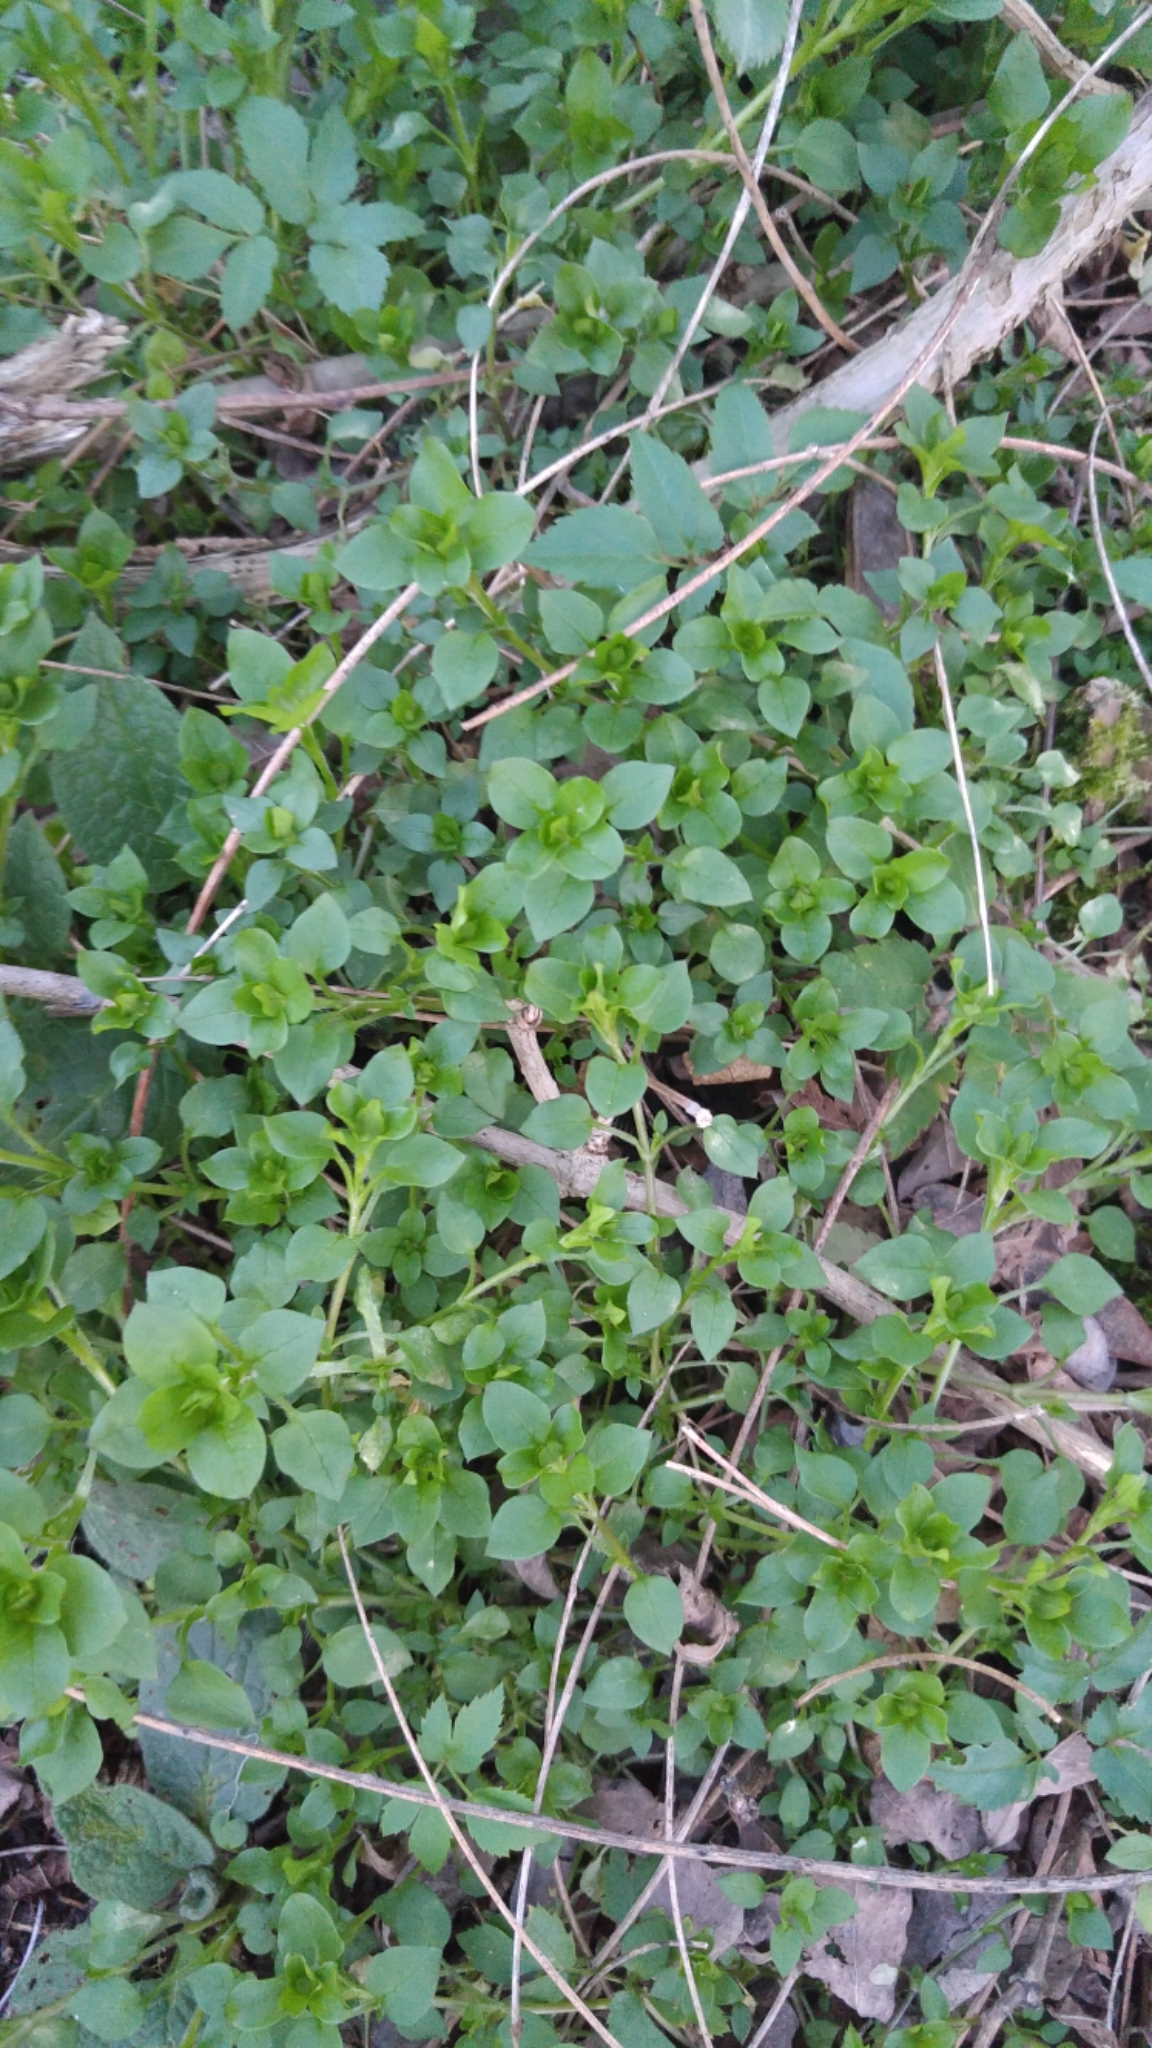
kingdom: Plantae
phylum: Tracheophyta
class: Magnoliopsida
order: Caryophyllales
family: Caryophyllaceae
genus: Stellaria
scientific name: Stellaria media
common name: Common chickweed
